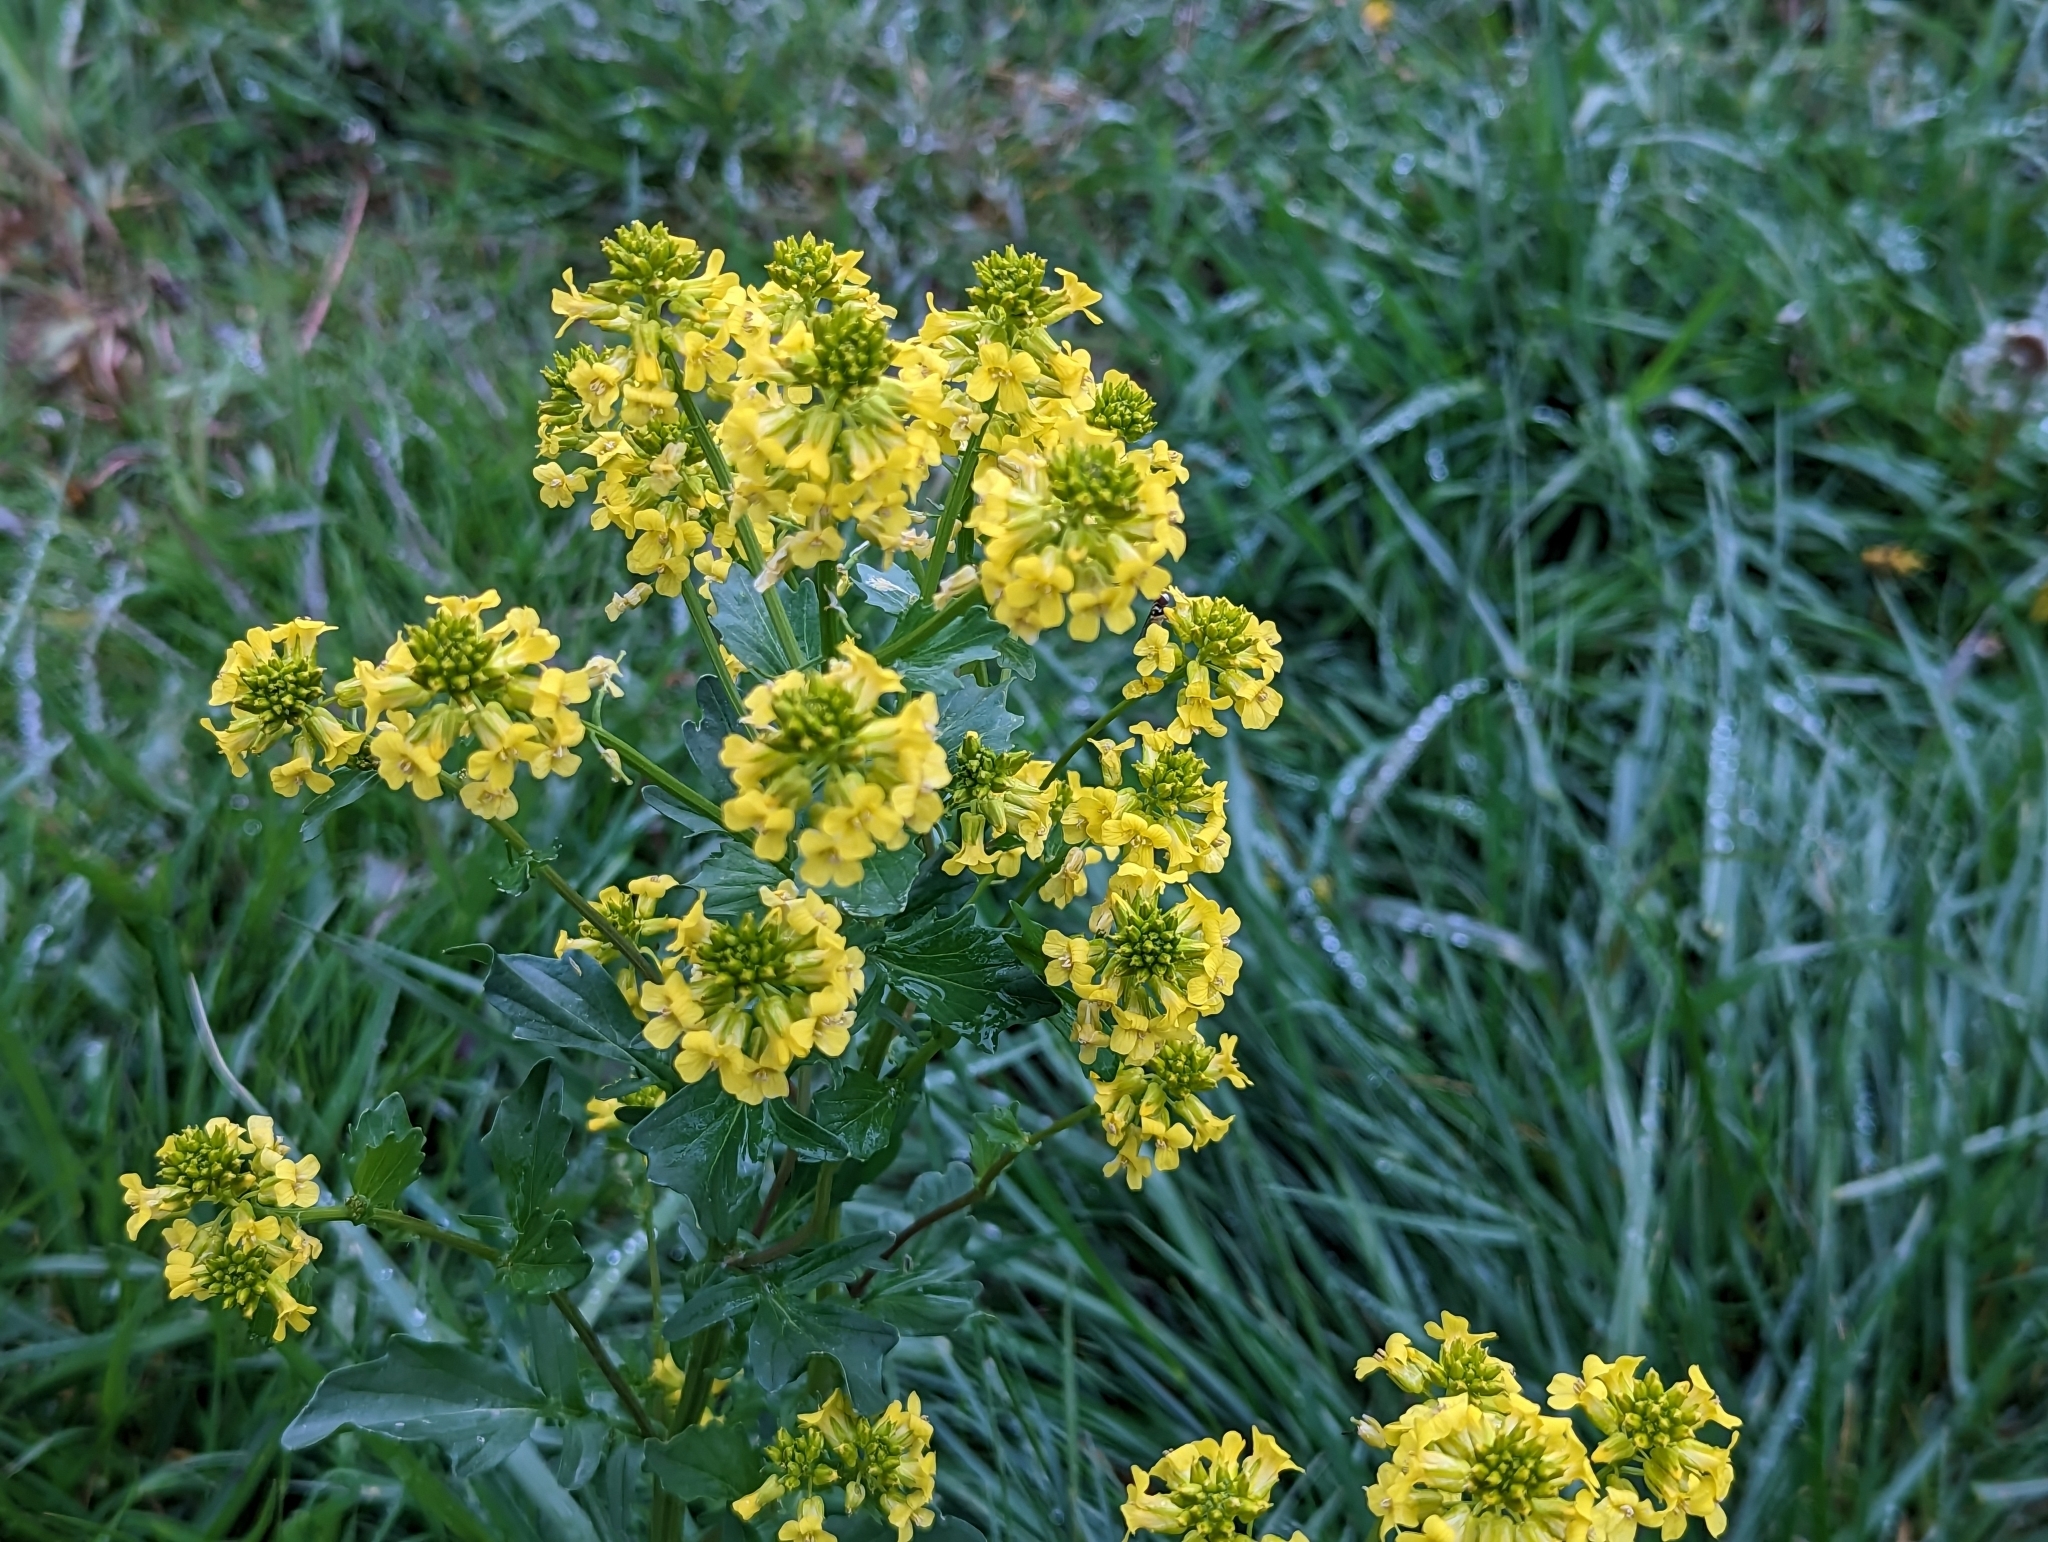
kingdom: Plantae
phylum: Tracheophyta
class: Magnoliopsida
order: Brassicales
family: Brassicaceae
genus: Barbarea
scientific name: Barbarea vulgaris
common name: Cressy-greens
